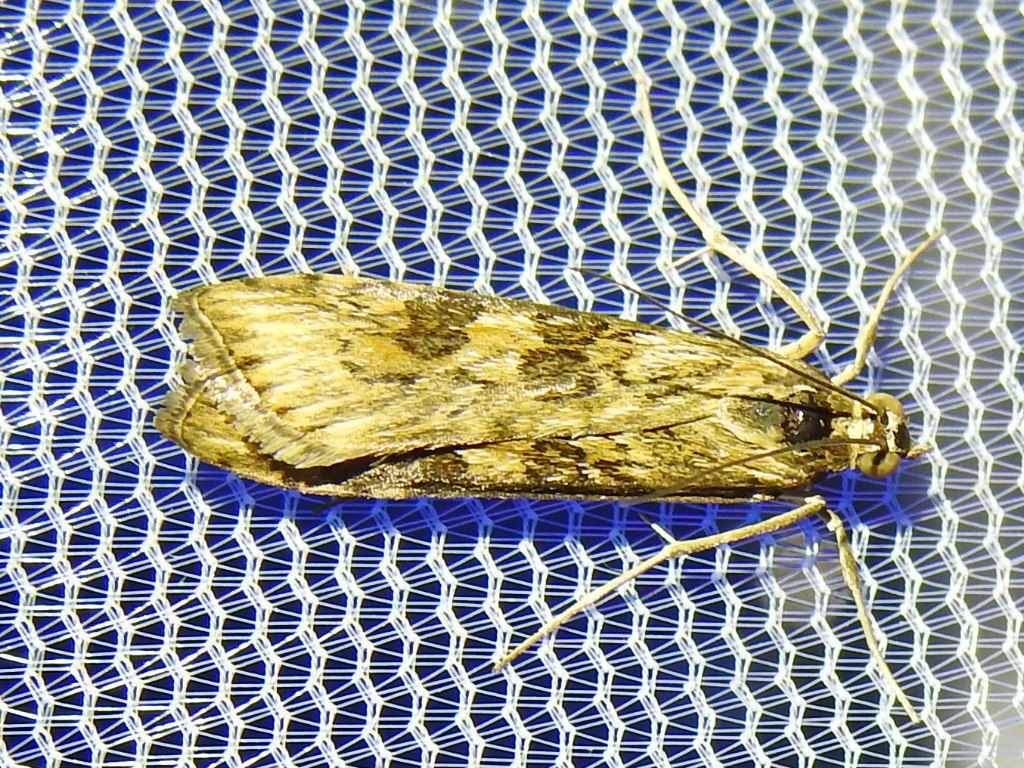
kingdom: Animalia
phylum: Arthropoda
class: Insecta
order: Lepidoptera
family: Crambidae
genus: Nomophila
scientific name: Nomophila nearctica
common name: American rush veneer
